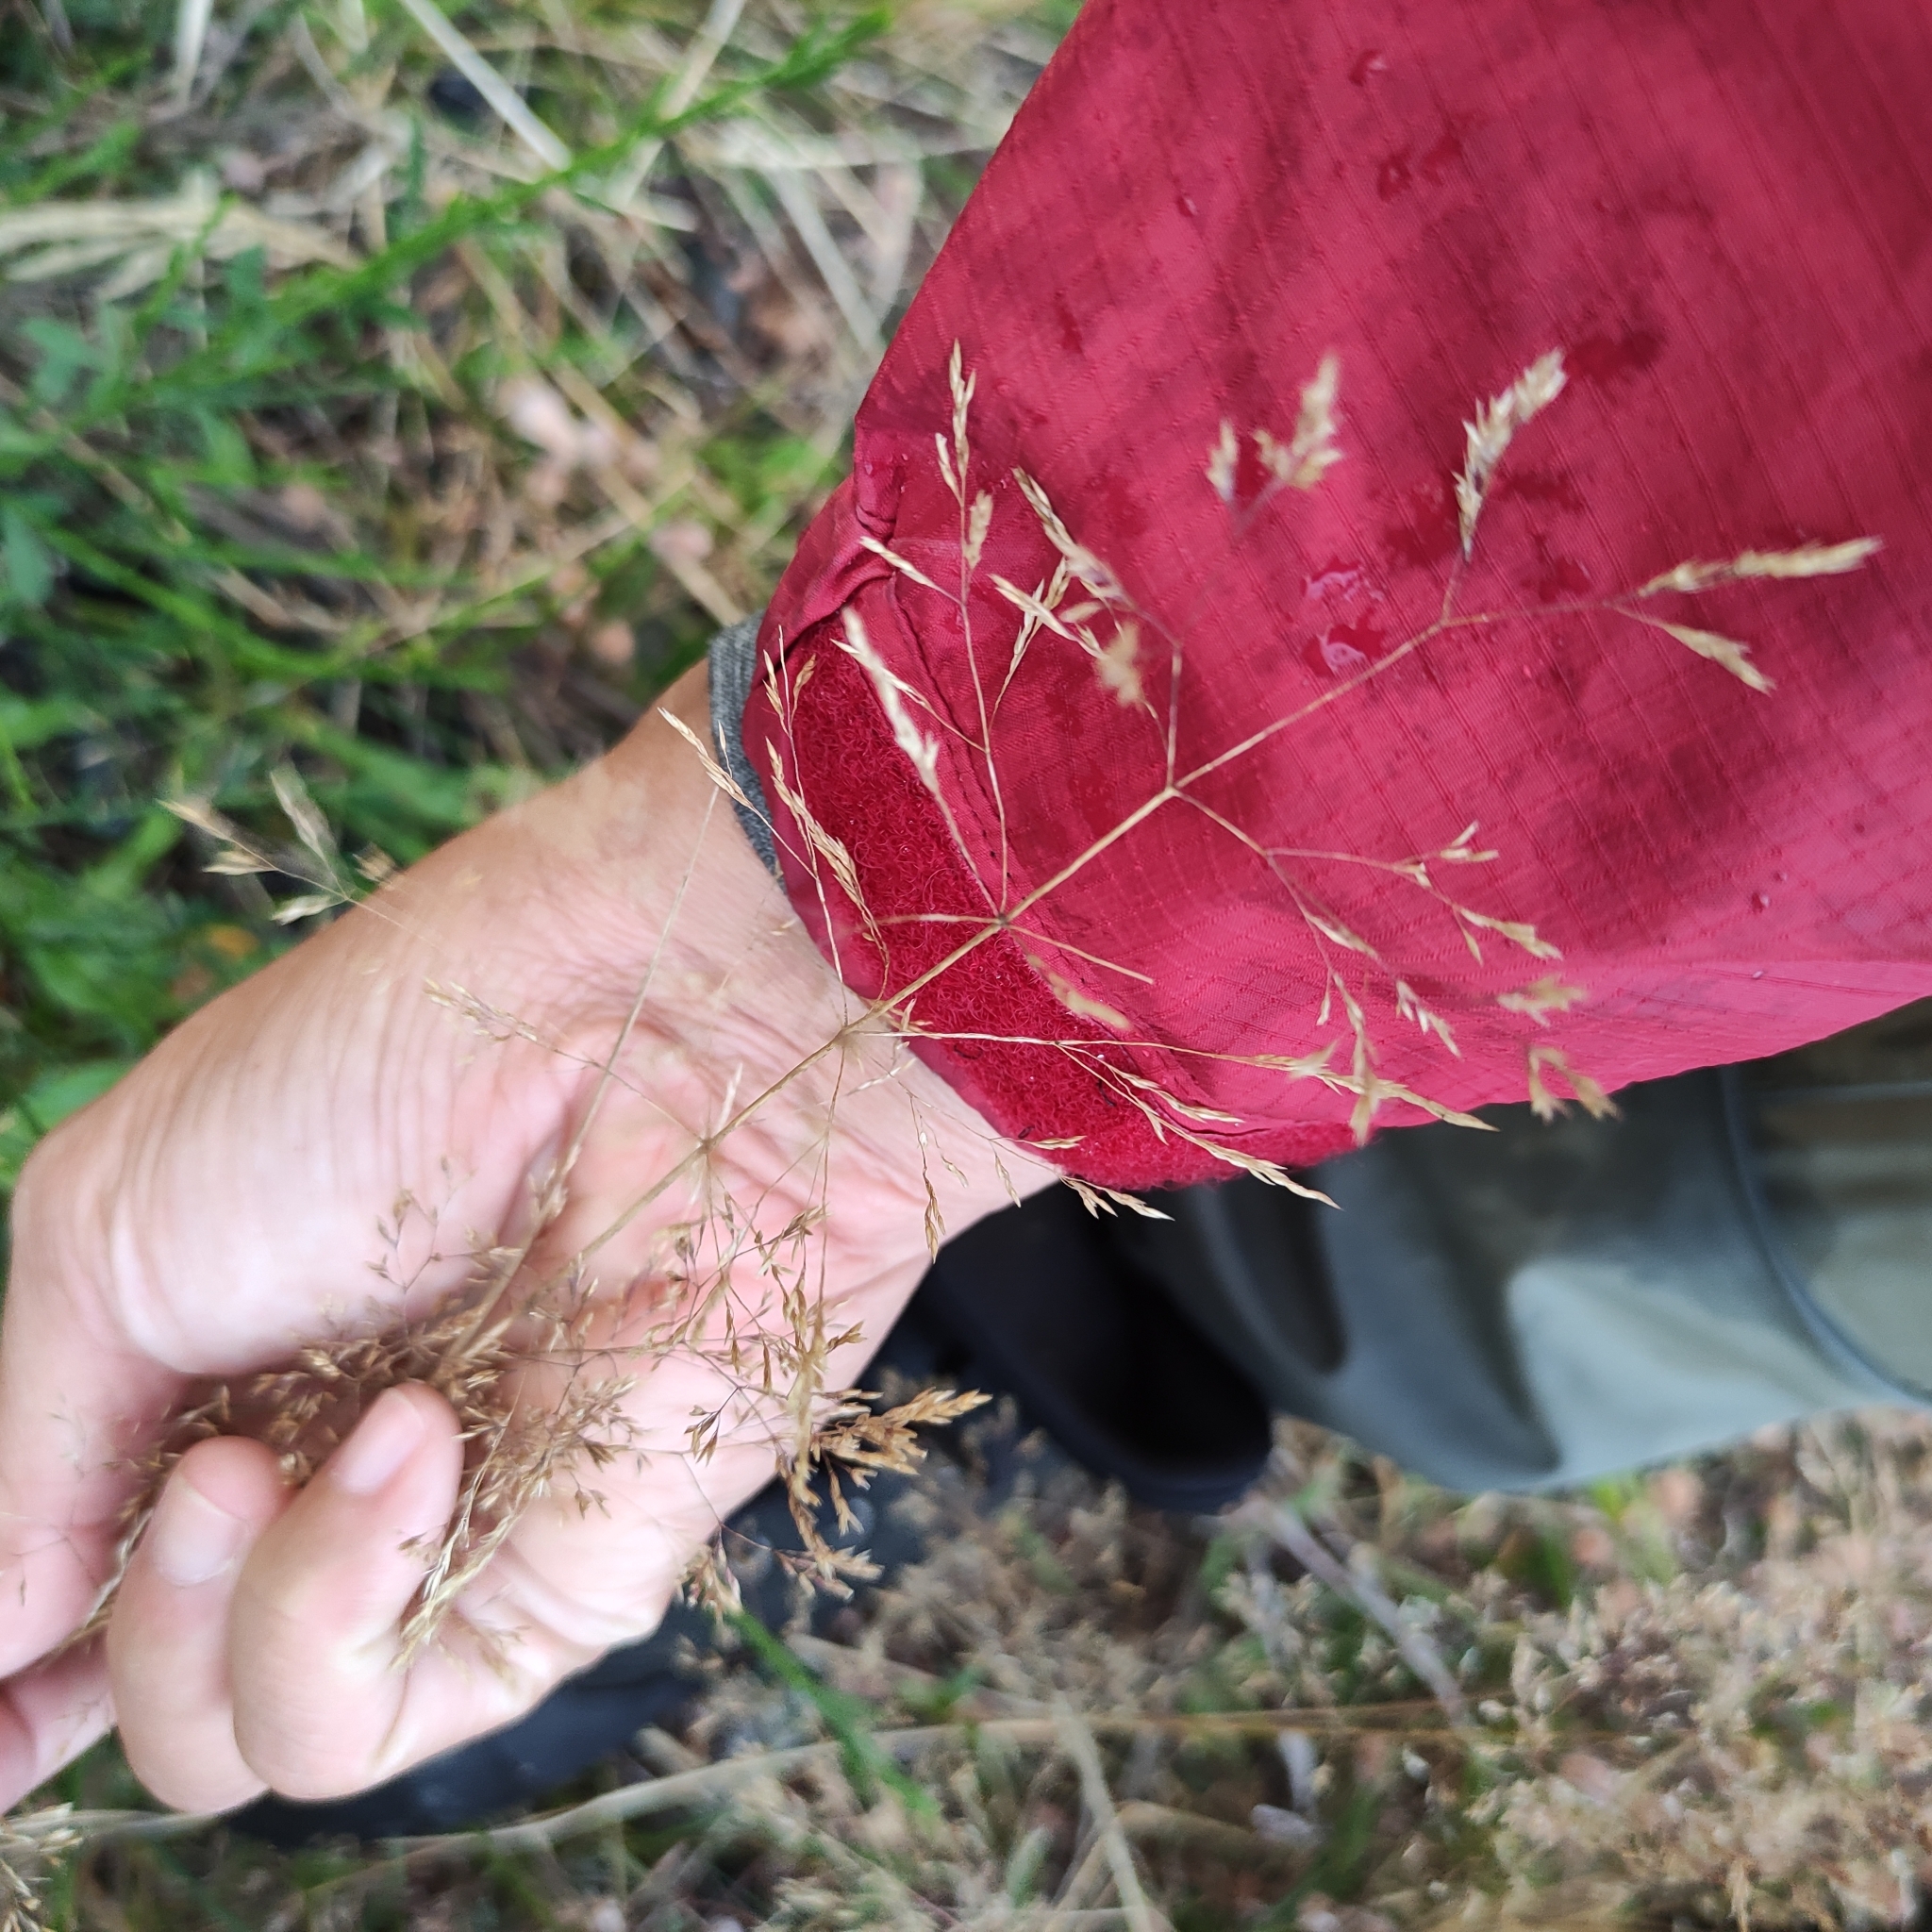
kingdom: Plantae
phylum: Tracheophyta
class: Liliopsida
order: Poales
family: Poaceae
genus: Agrostis
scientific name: Agrostis capillaris
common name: Colonial bentgrass
